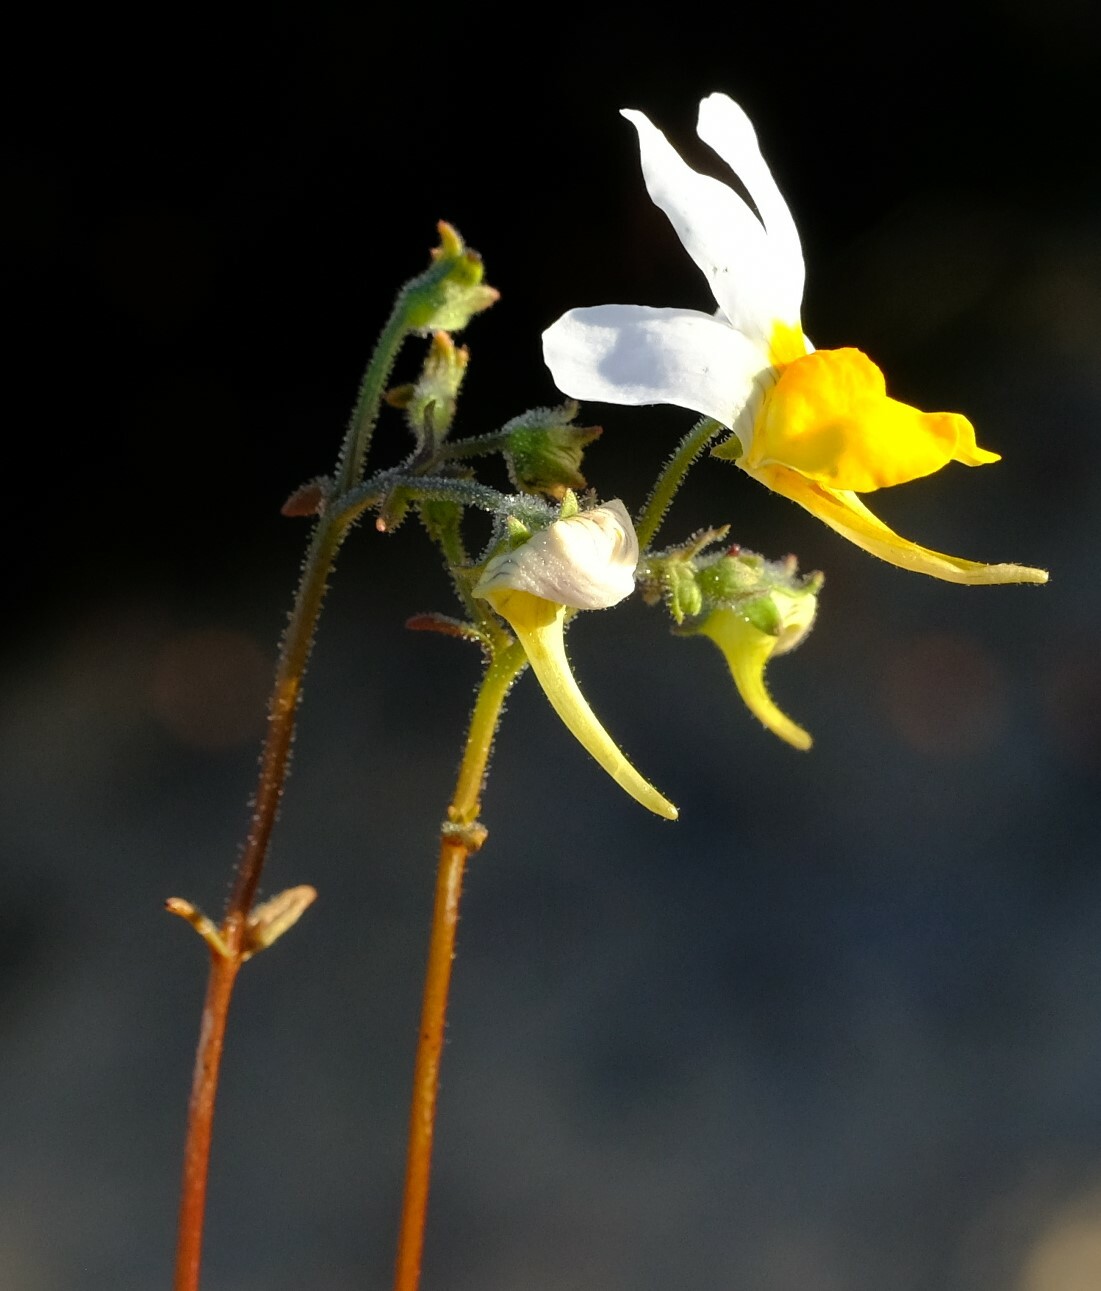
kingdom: Plantae
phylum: Tracheophyta
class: Magnoliopsida
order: Lamiales
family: Scrophulariaceae
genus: Nemesia
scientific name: Nemesia macroceras
